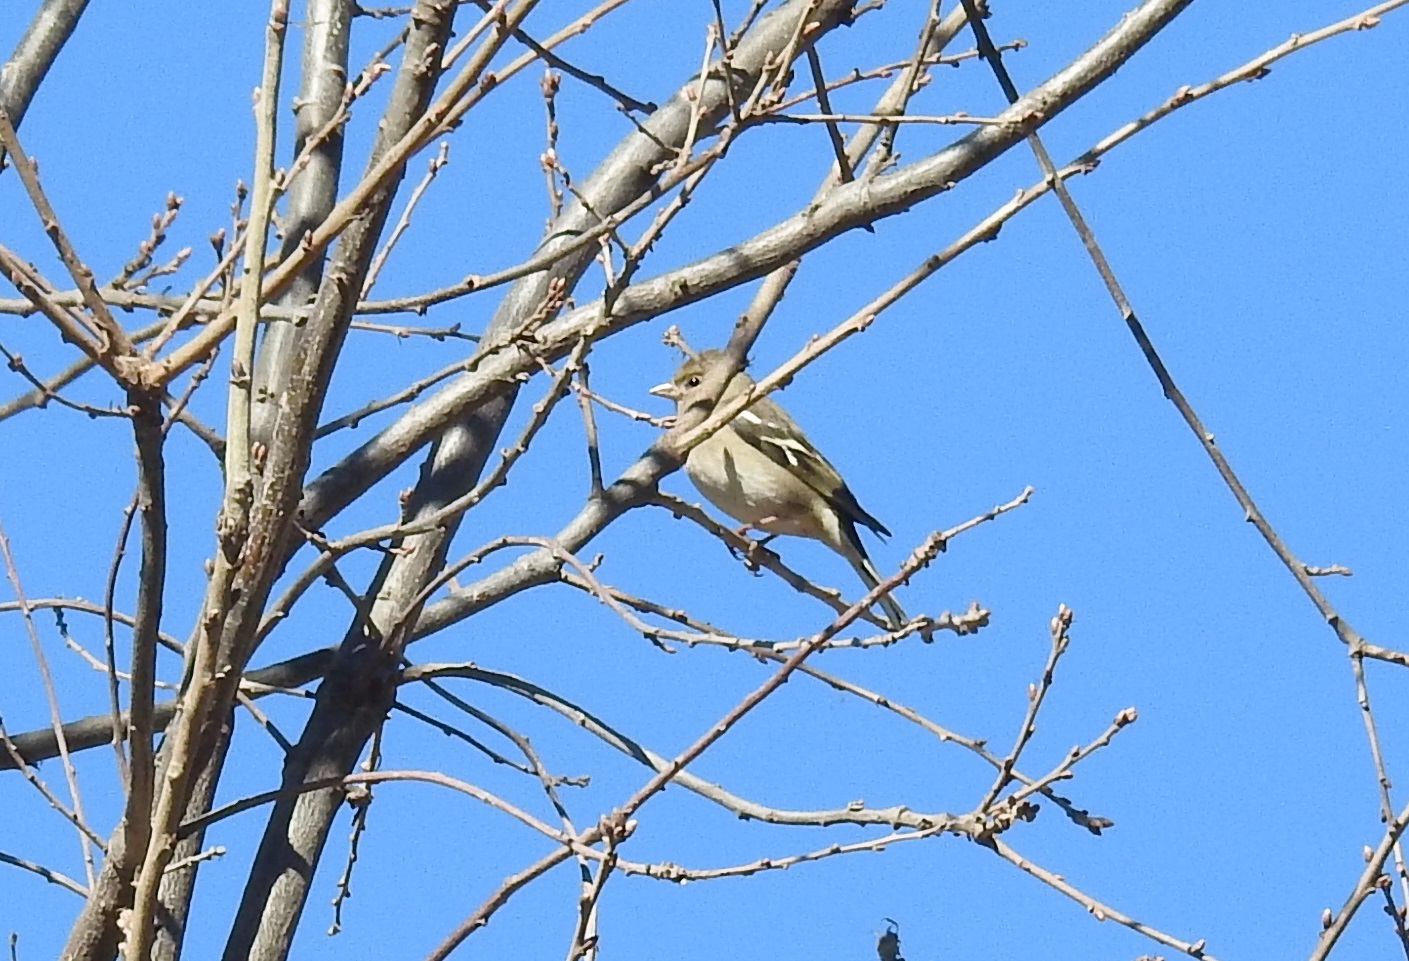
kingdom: Animalia
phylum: Chordata
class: Aves
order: Passeriformes
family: Fringillidae
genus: Fringilla
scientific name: Fringilla spodiogenys
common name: African chaffinch
